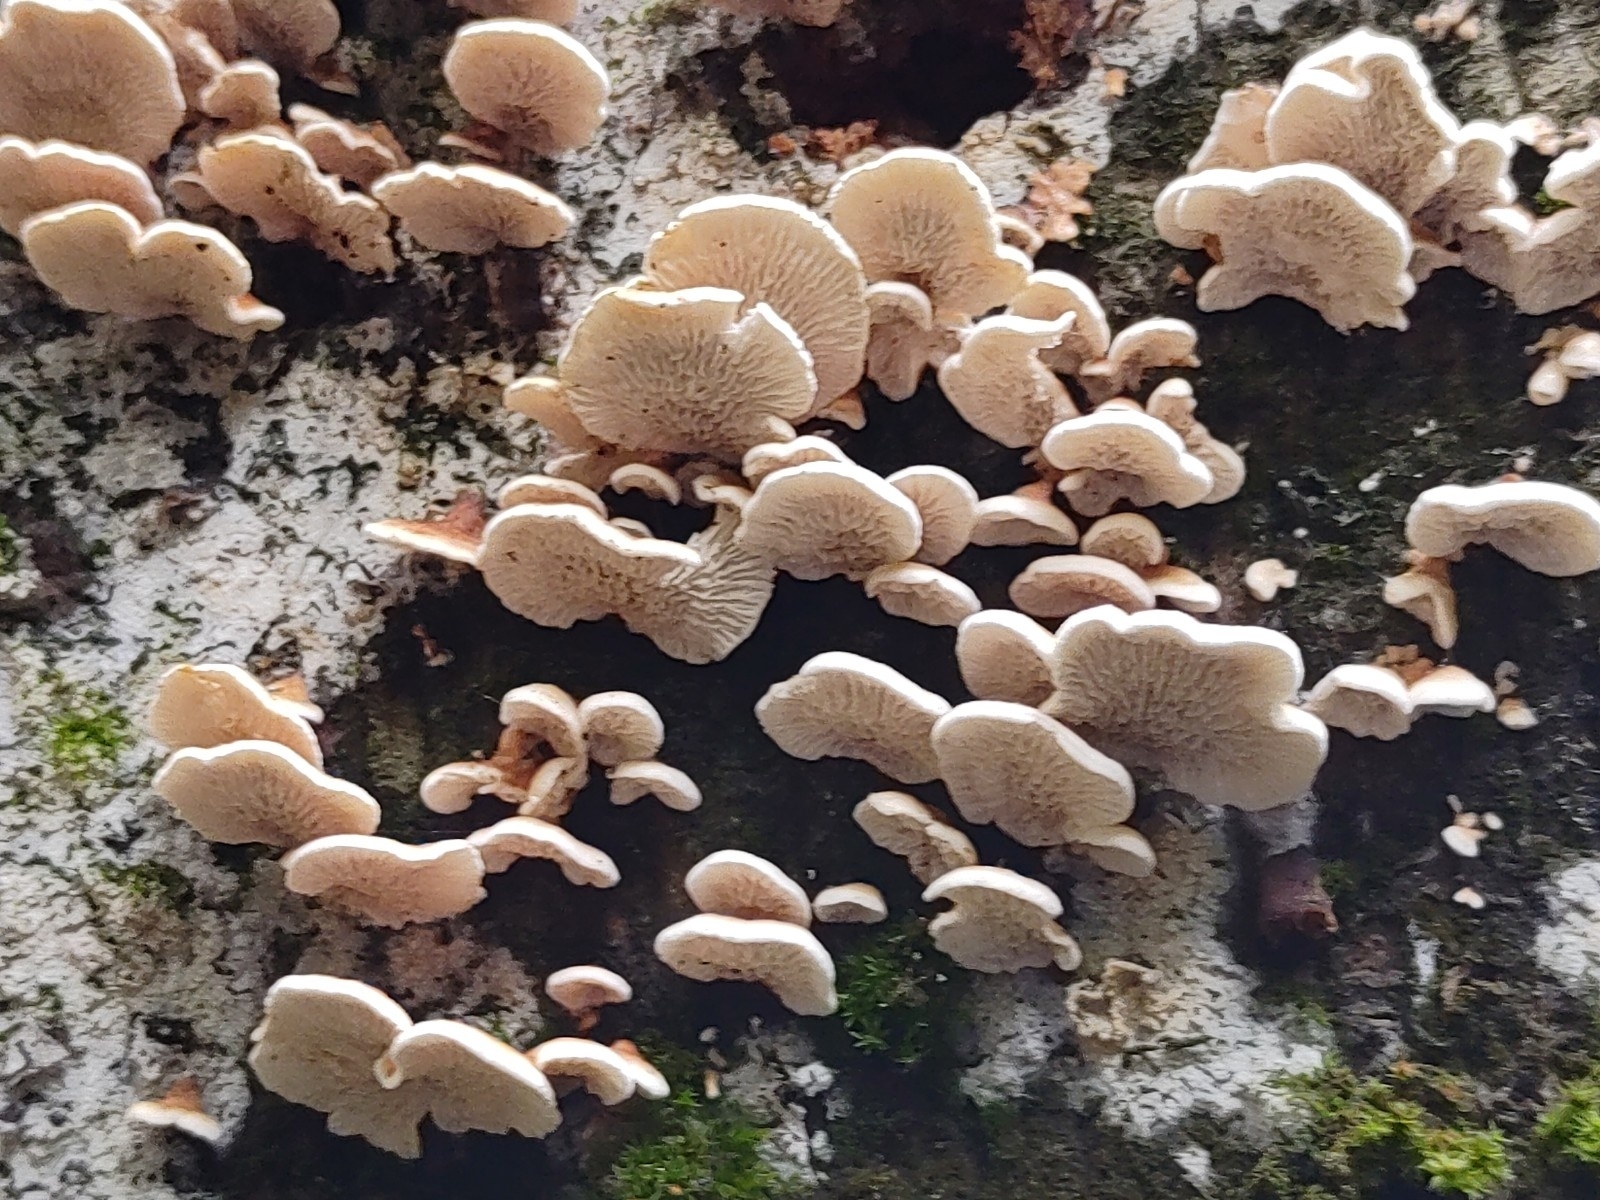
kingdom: Fungi
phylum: Basidiomycota
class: Agaricomycetes
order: Amylocorticiales
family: Amylocorticiaceae
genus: Plicaturopsis
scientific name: Plicaturopsis crispa
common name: Crimped gill
